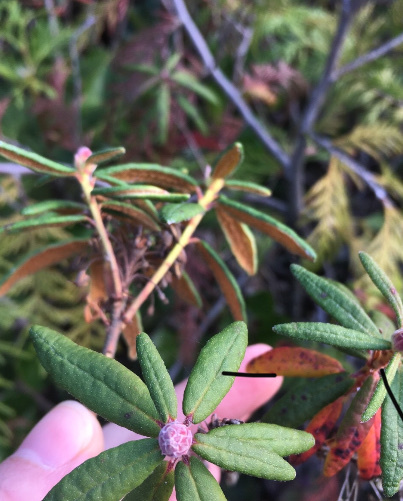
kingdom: Plantae
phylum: Tracheophyta
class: Magnoliopsida
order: Ericales
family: Ericaceae
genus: Rhododendron
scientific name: Rhododendron groenlandicum
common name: Bog labrador tea
